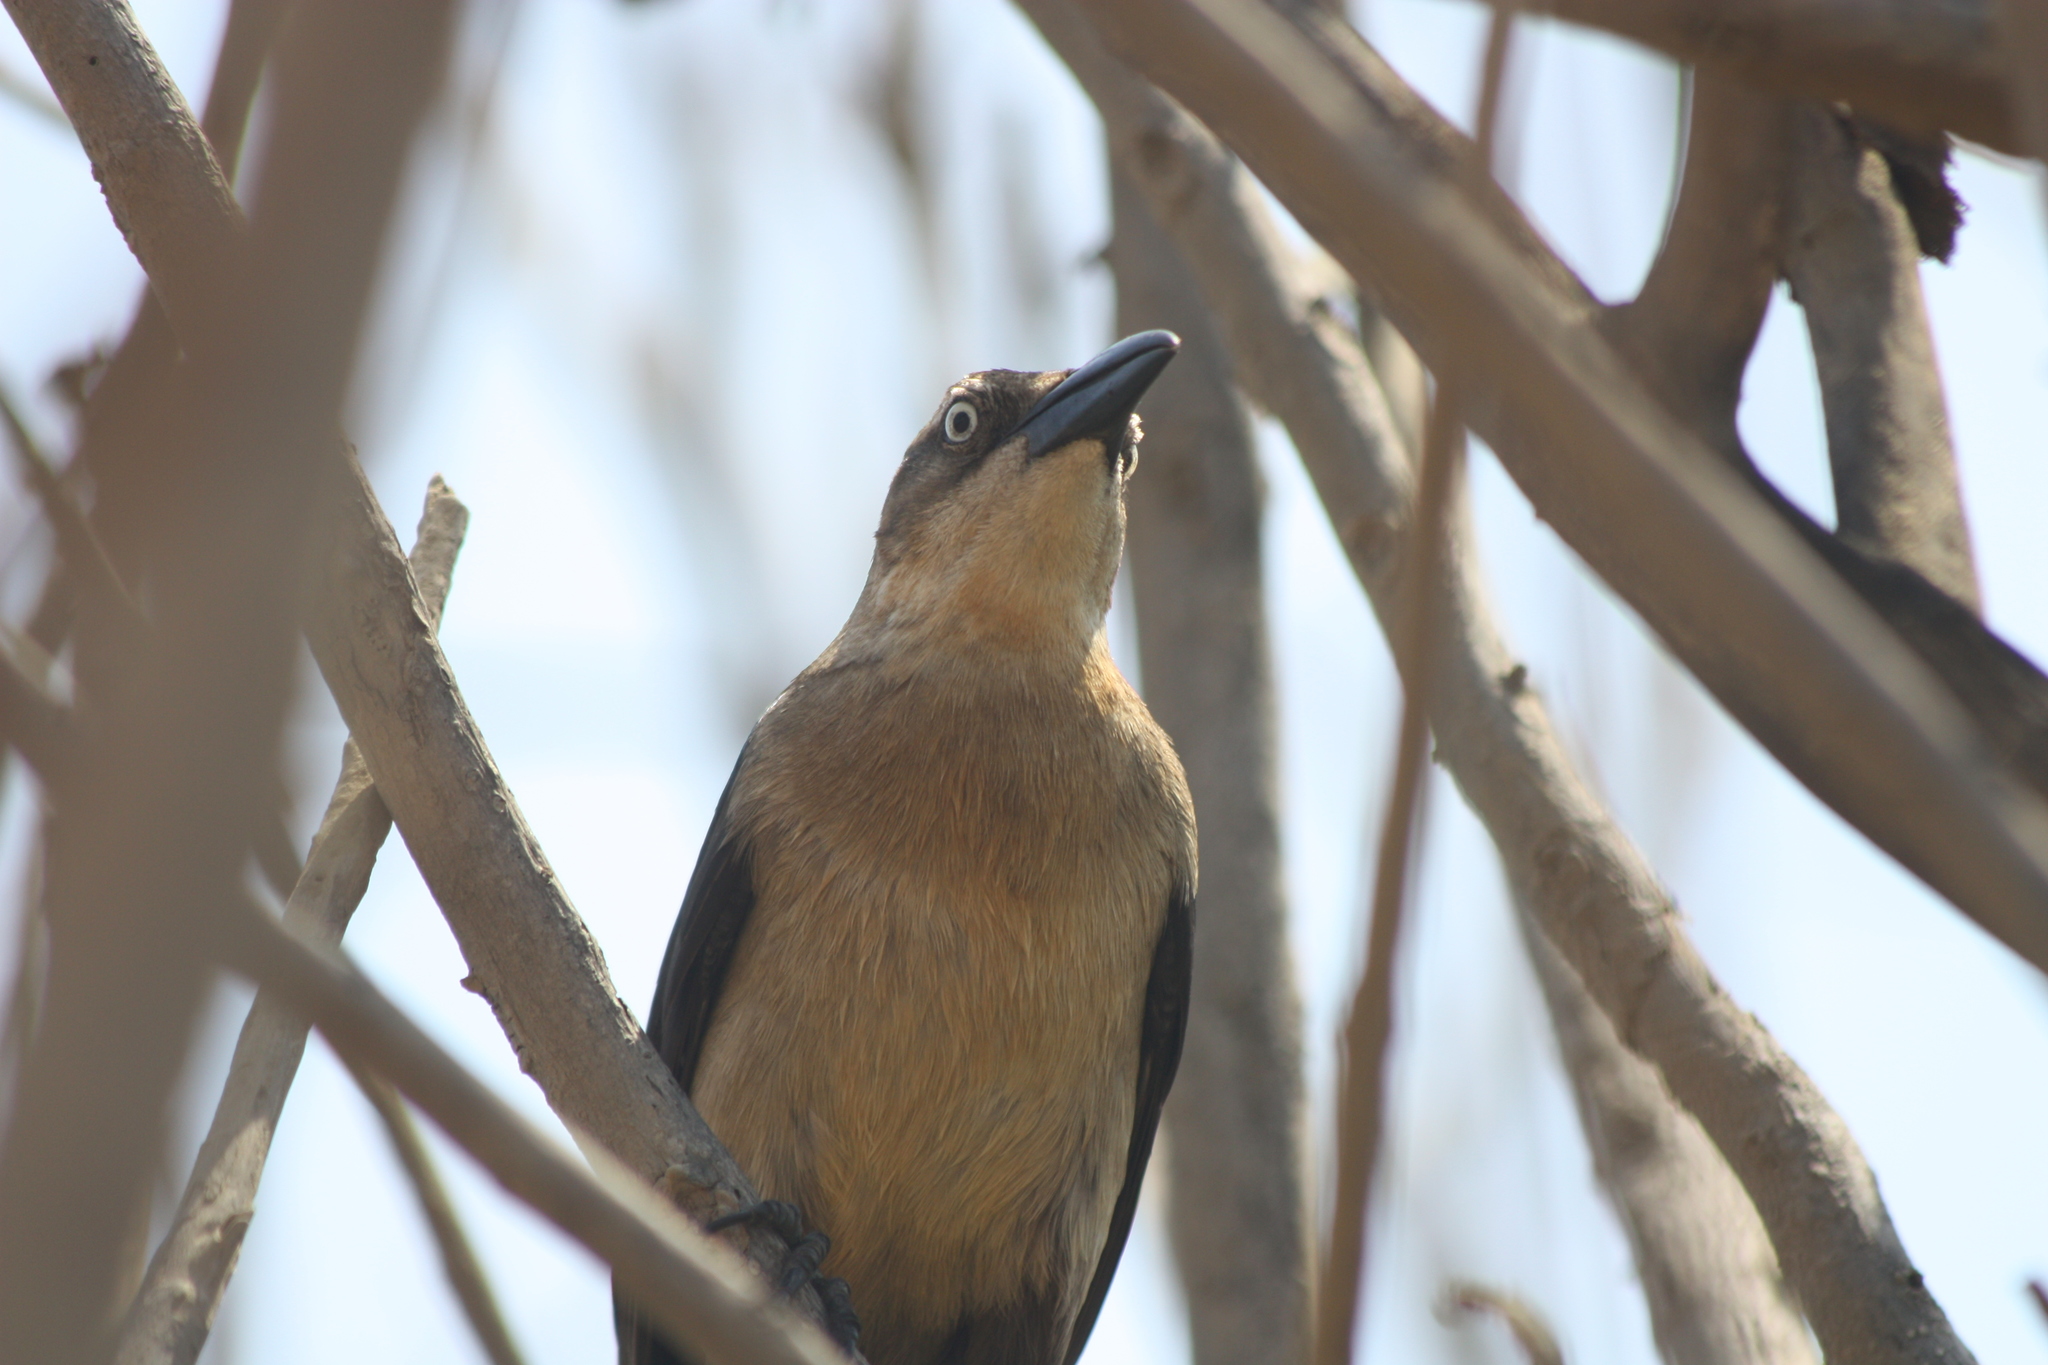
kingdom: Animalia
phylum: Chordata
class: Aves
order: Passeriformes
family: Icteridae
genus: Quiscalus
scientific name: Quiscalus mexicanus
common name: Great-tailed grackle
